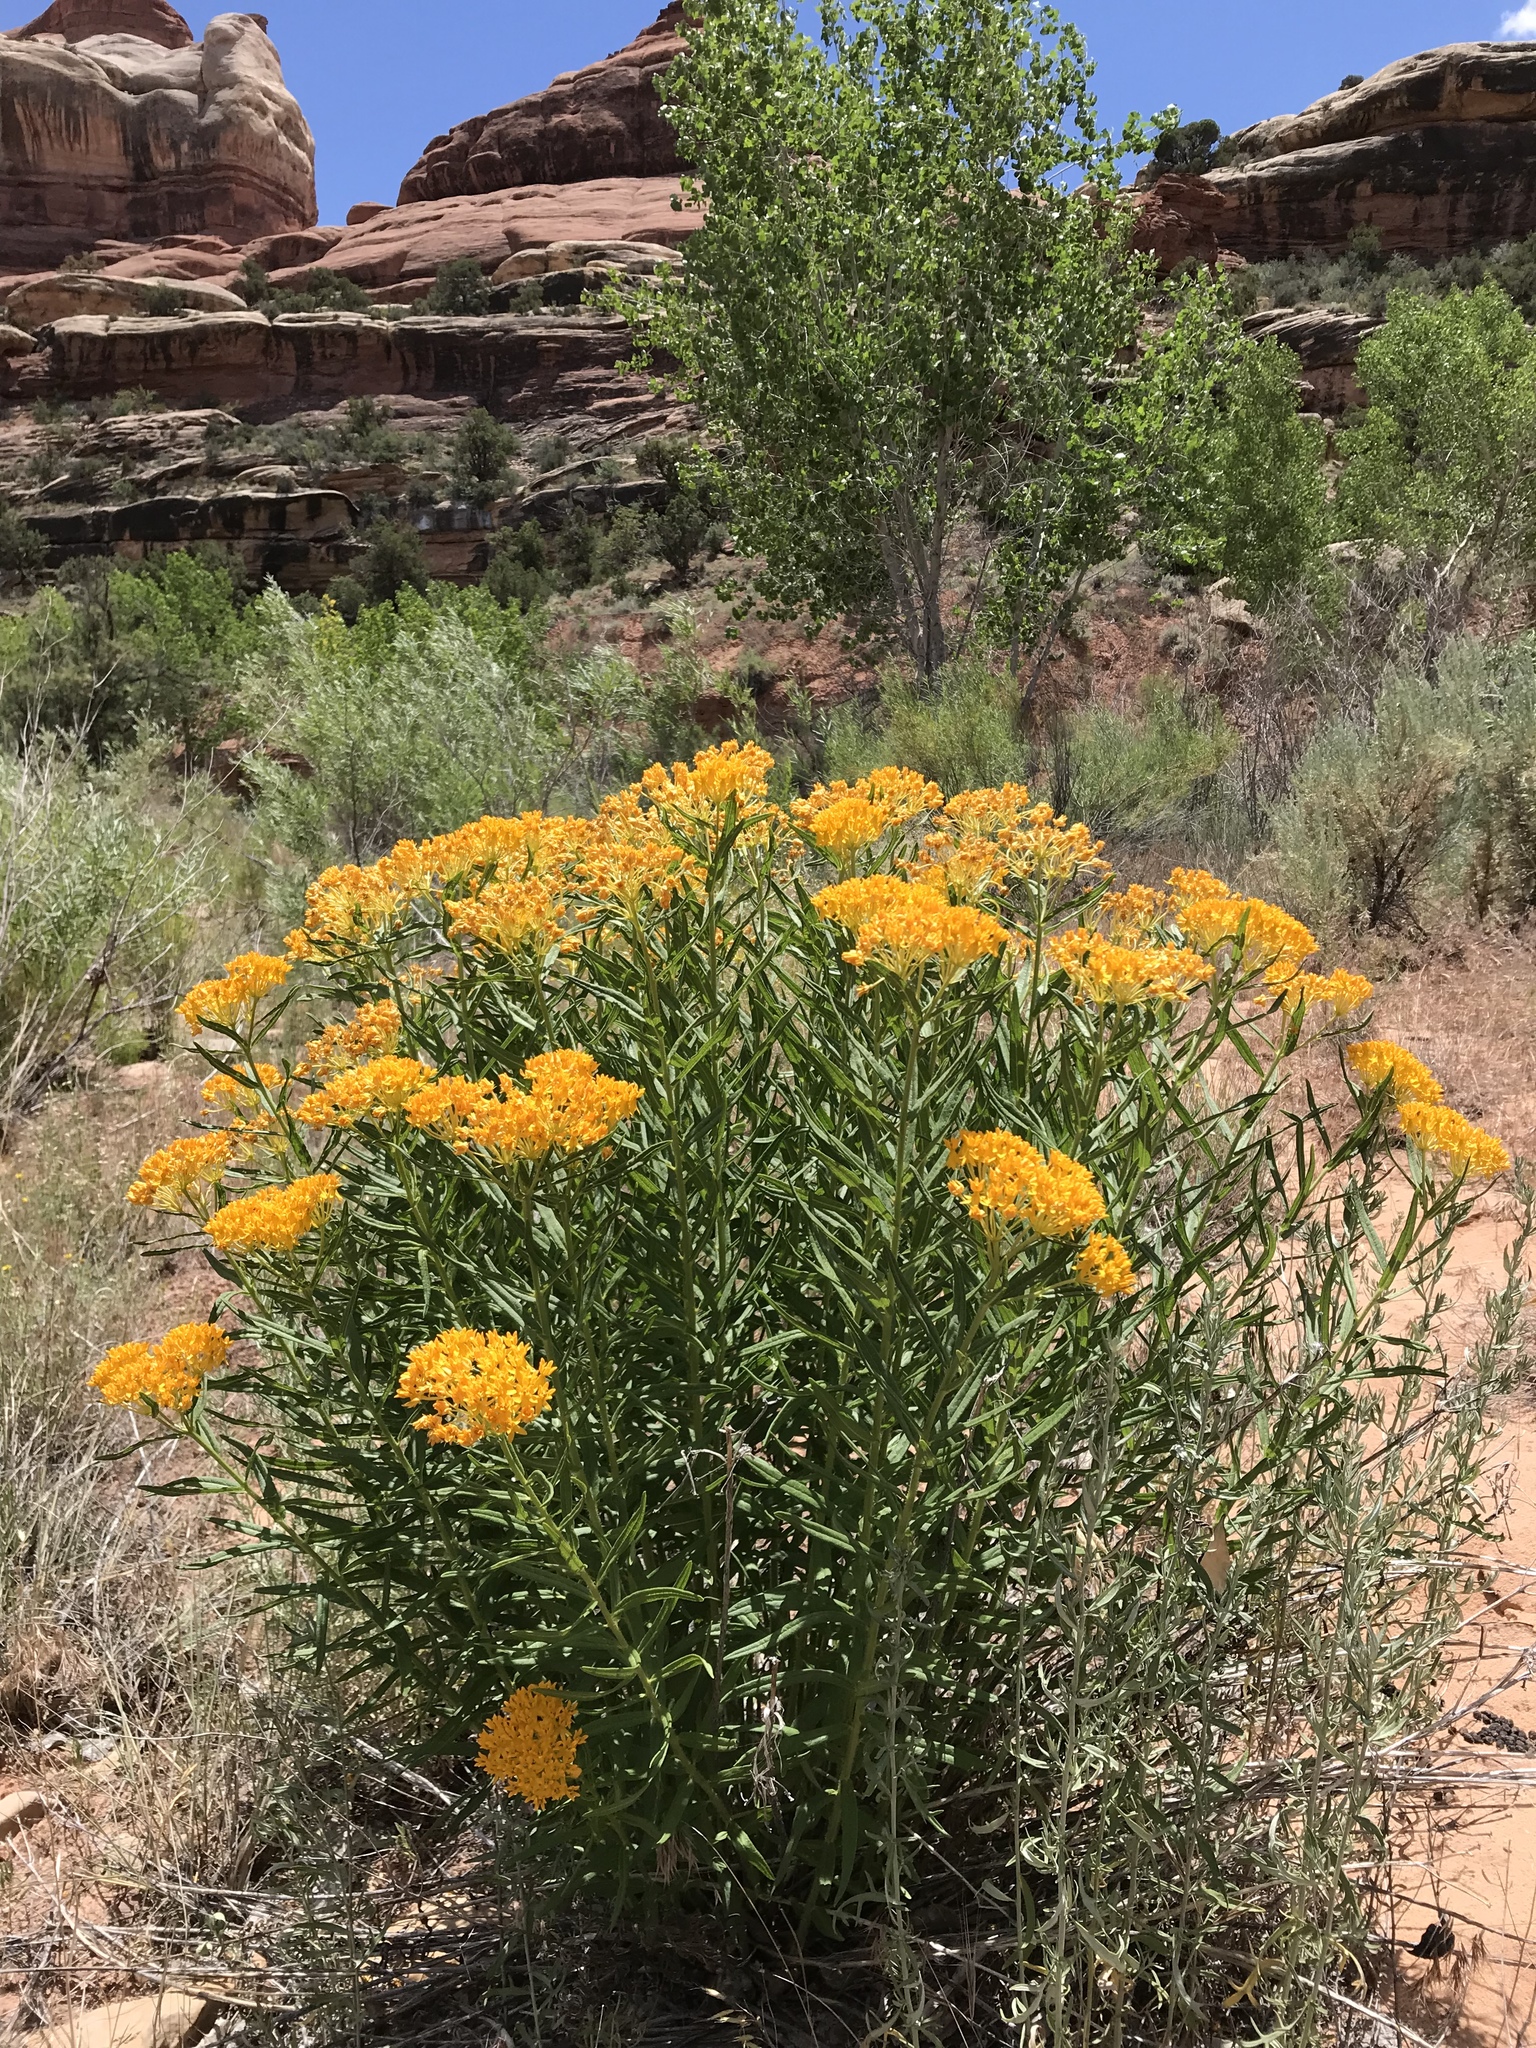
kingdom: Plantae
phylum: Tracheophyta
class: Magnoliopsida
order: Gentianales
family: Apocynaceae
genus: Asclepias
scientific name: Asclepias tuberosa
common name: Butterfly milkweed
